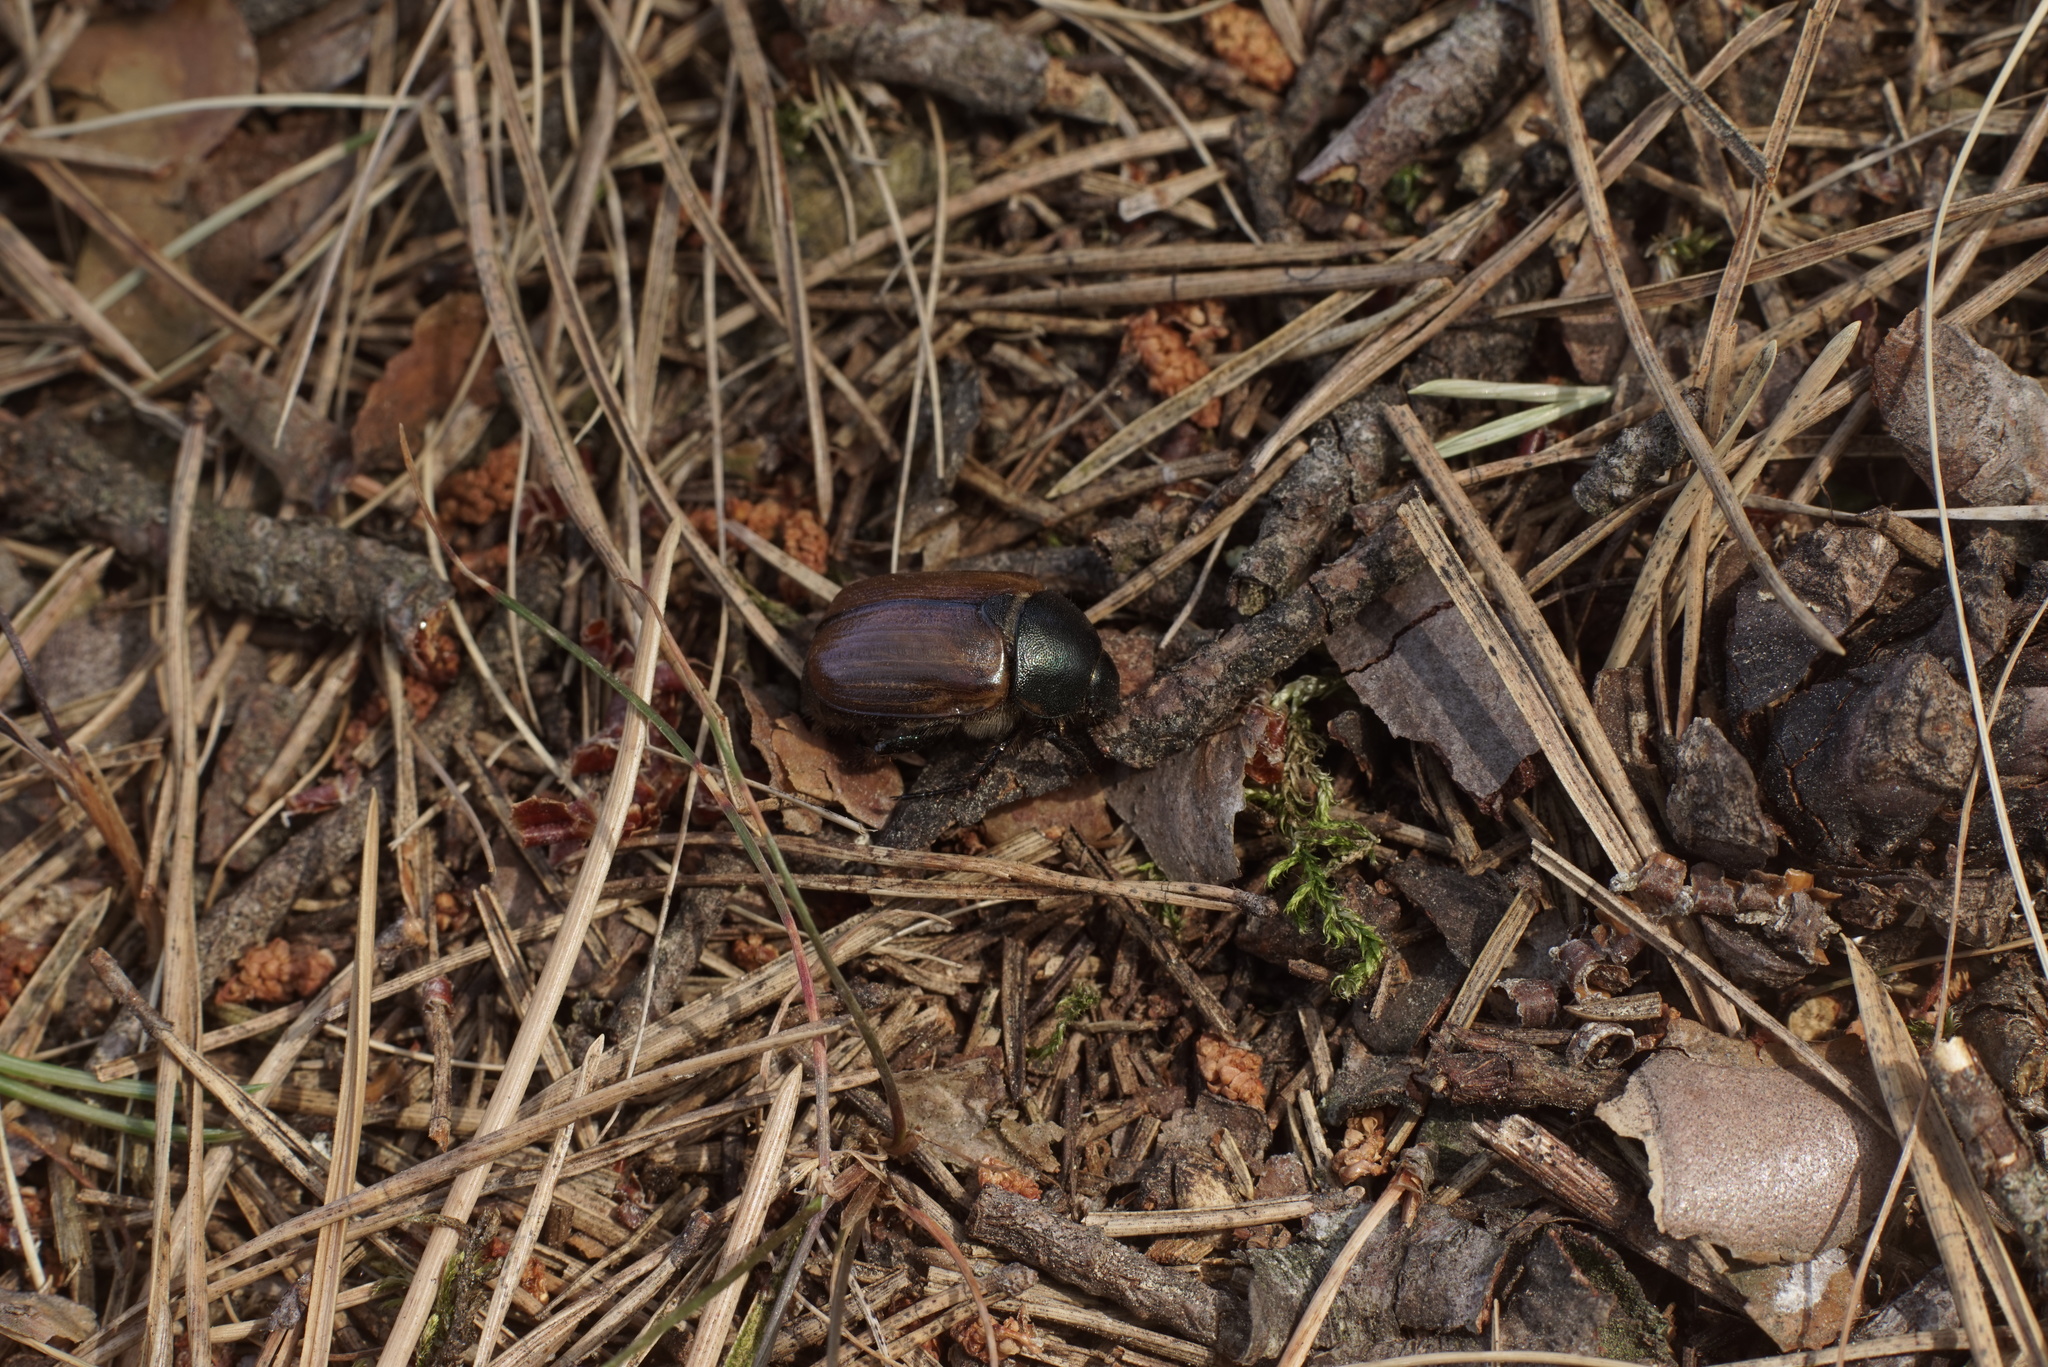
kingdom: Animalia
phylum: Arthropoda
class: Insecta
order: Coleoptera
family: Scarabaeidae
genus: Anomala
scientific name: Anomala dubia
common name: Dune chafer
